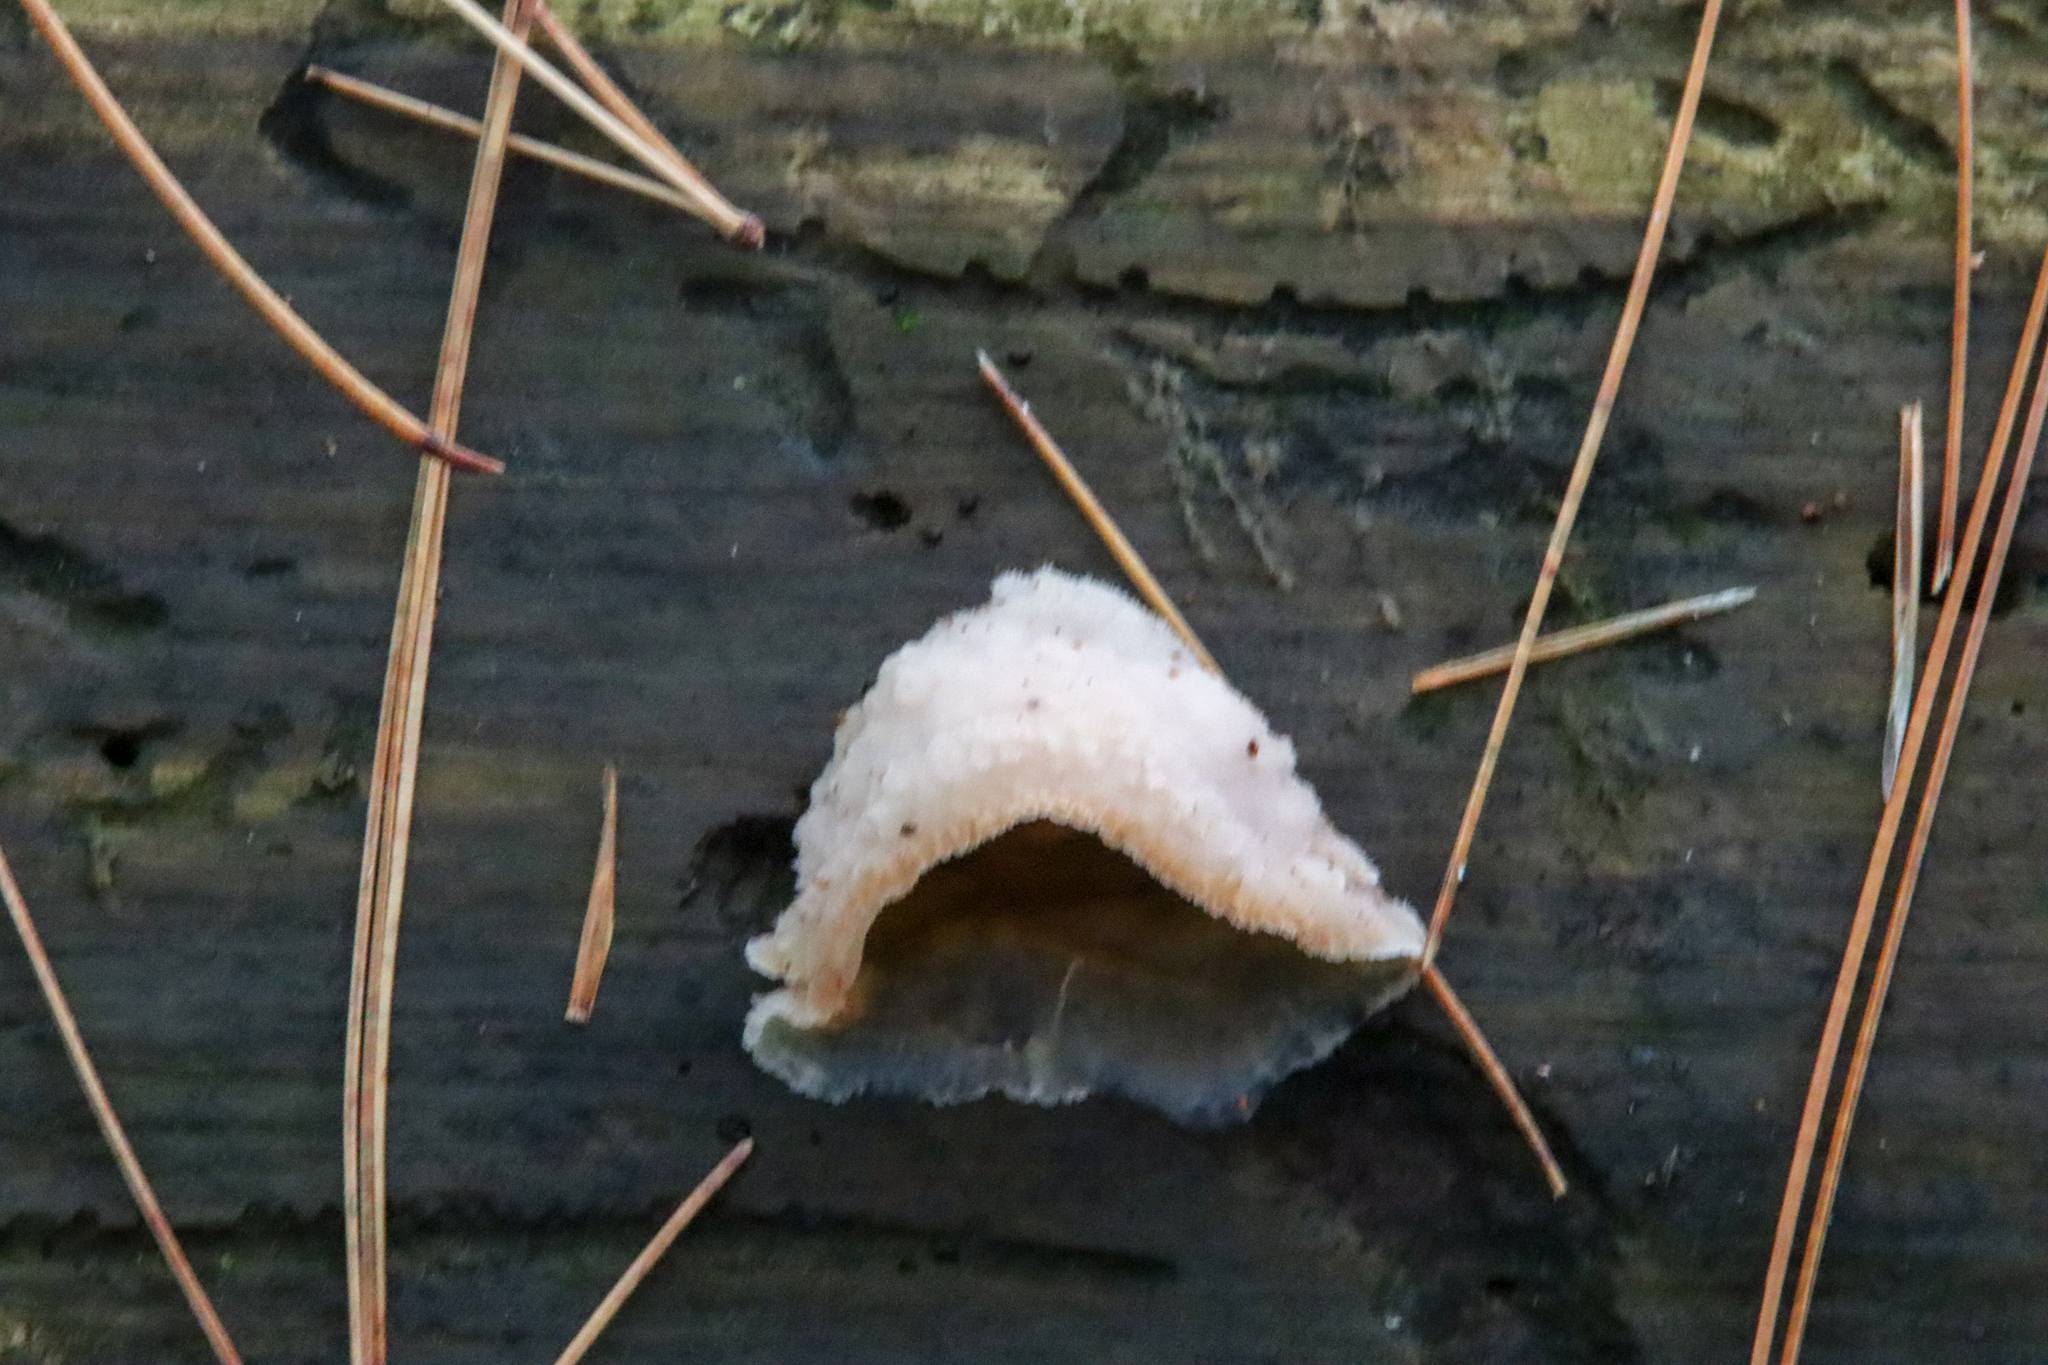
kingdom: Fungi
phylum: Basidiomycota
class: Agaricomycetes
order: Polyporales
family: Meruliaceae
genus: Phlebia
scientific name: Phlebia tremellosa
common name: Jelly rot
